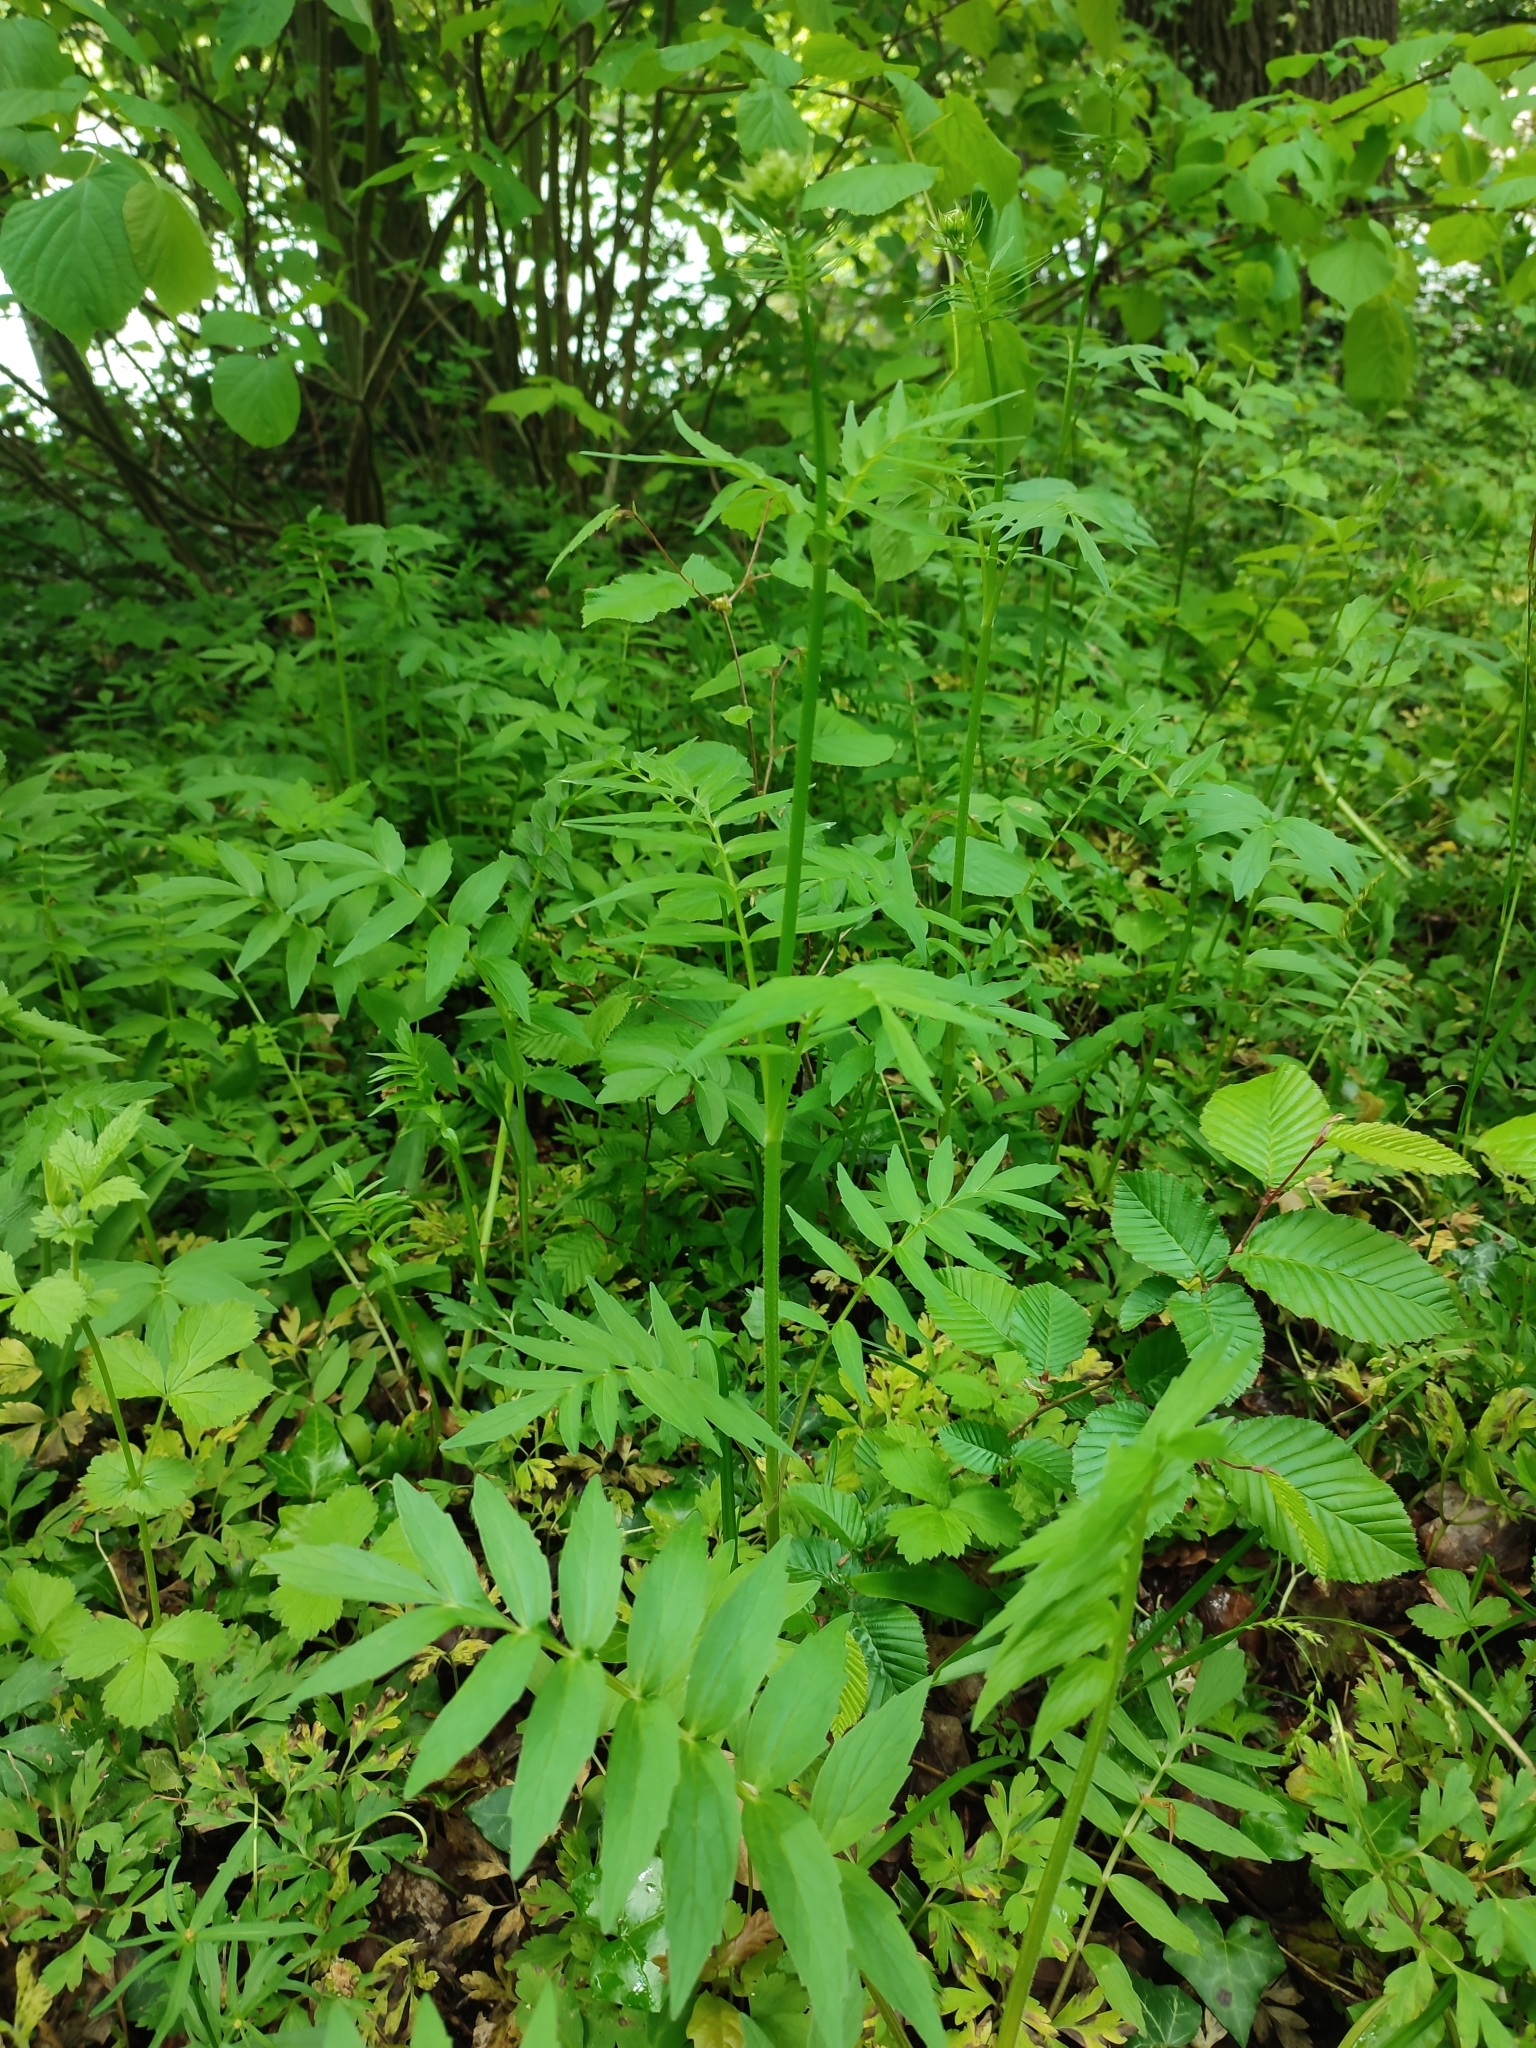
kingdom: Plantae
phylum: Tracheophyta
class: Magnoliopsida
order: Dipsacales
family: Caprifoliaceae
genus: Valeriana
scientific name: Valeriana officinalis
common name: Common valerian
